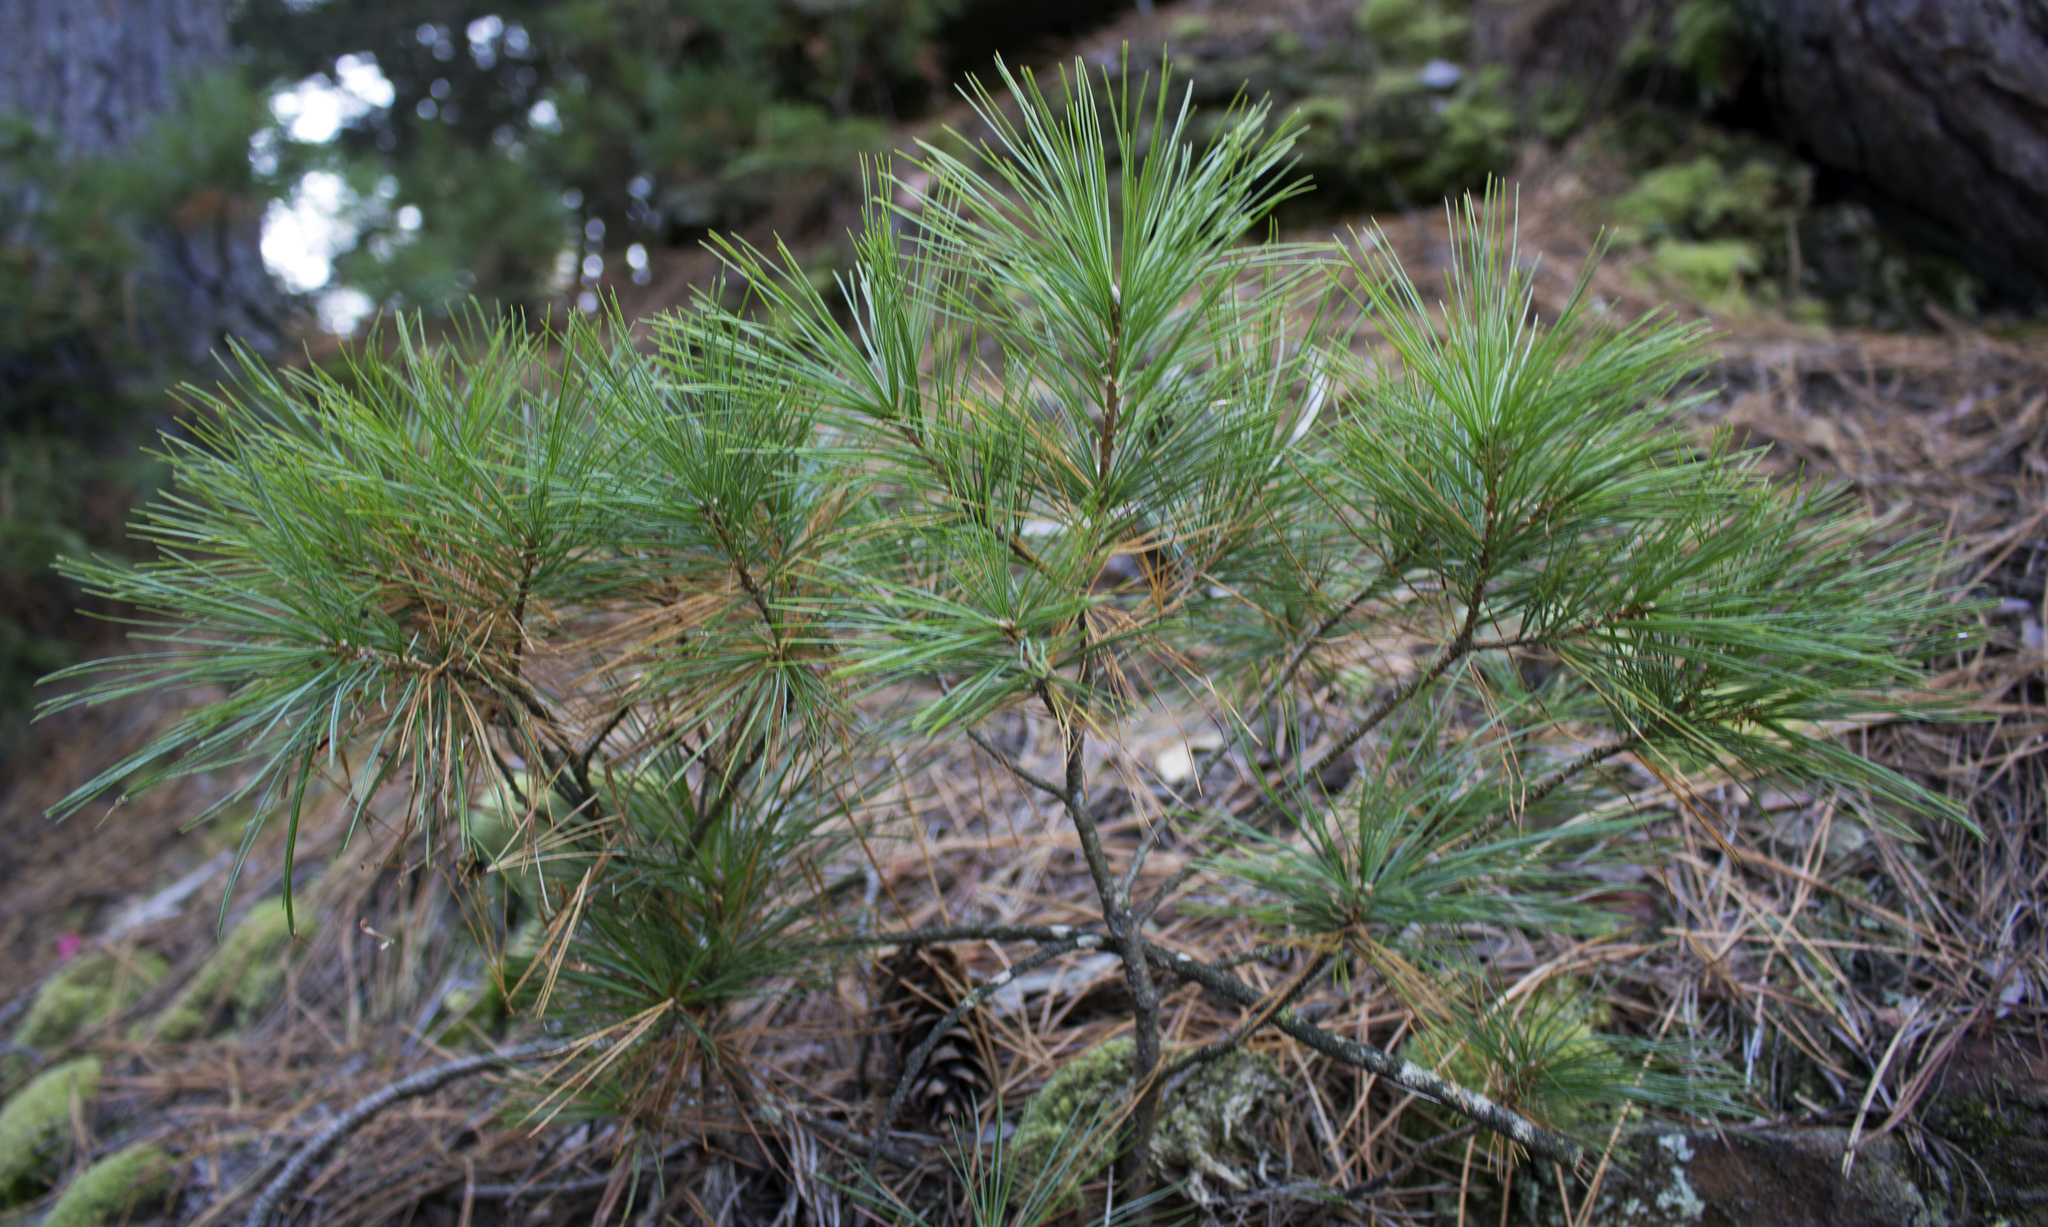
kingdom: Plantae
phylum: Tracheophyta
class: Pinopsida
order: Pinales
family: Pinaceae
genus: Pinus
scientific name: Pinus strobus
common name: Weymouth pine
